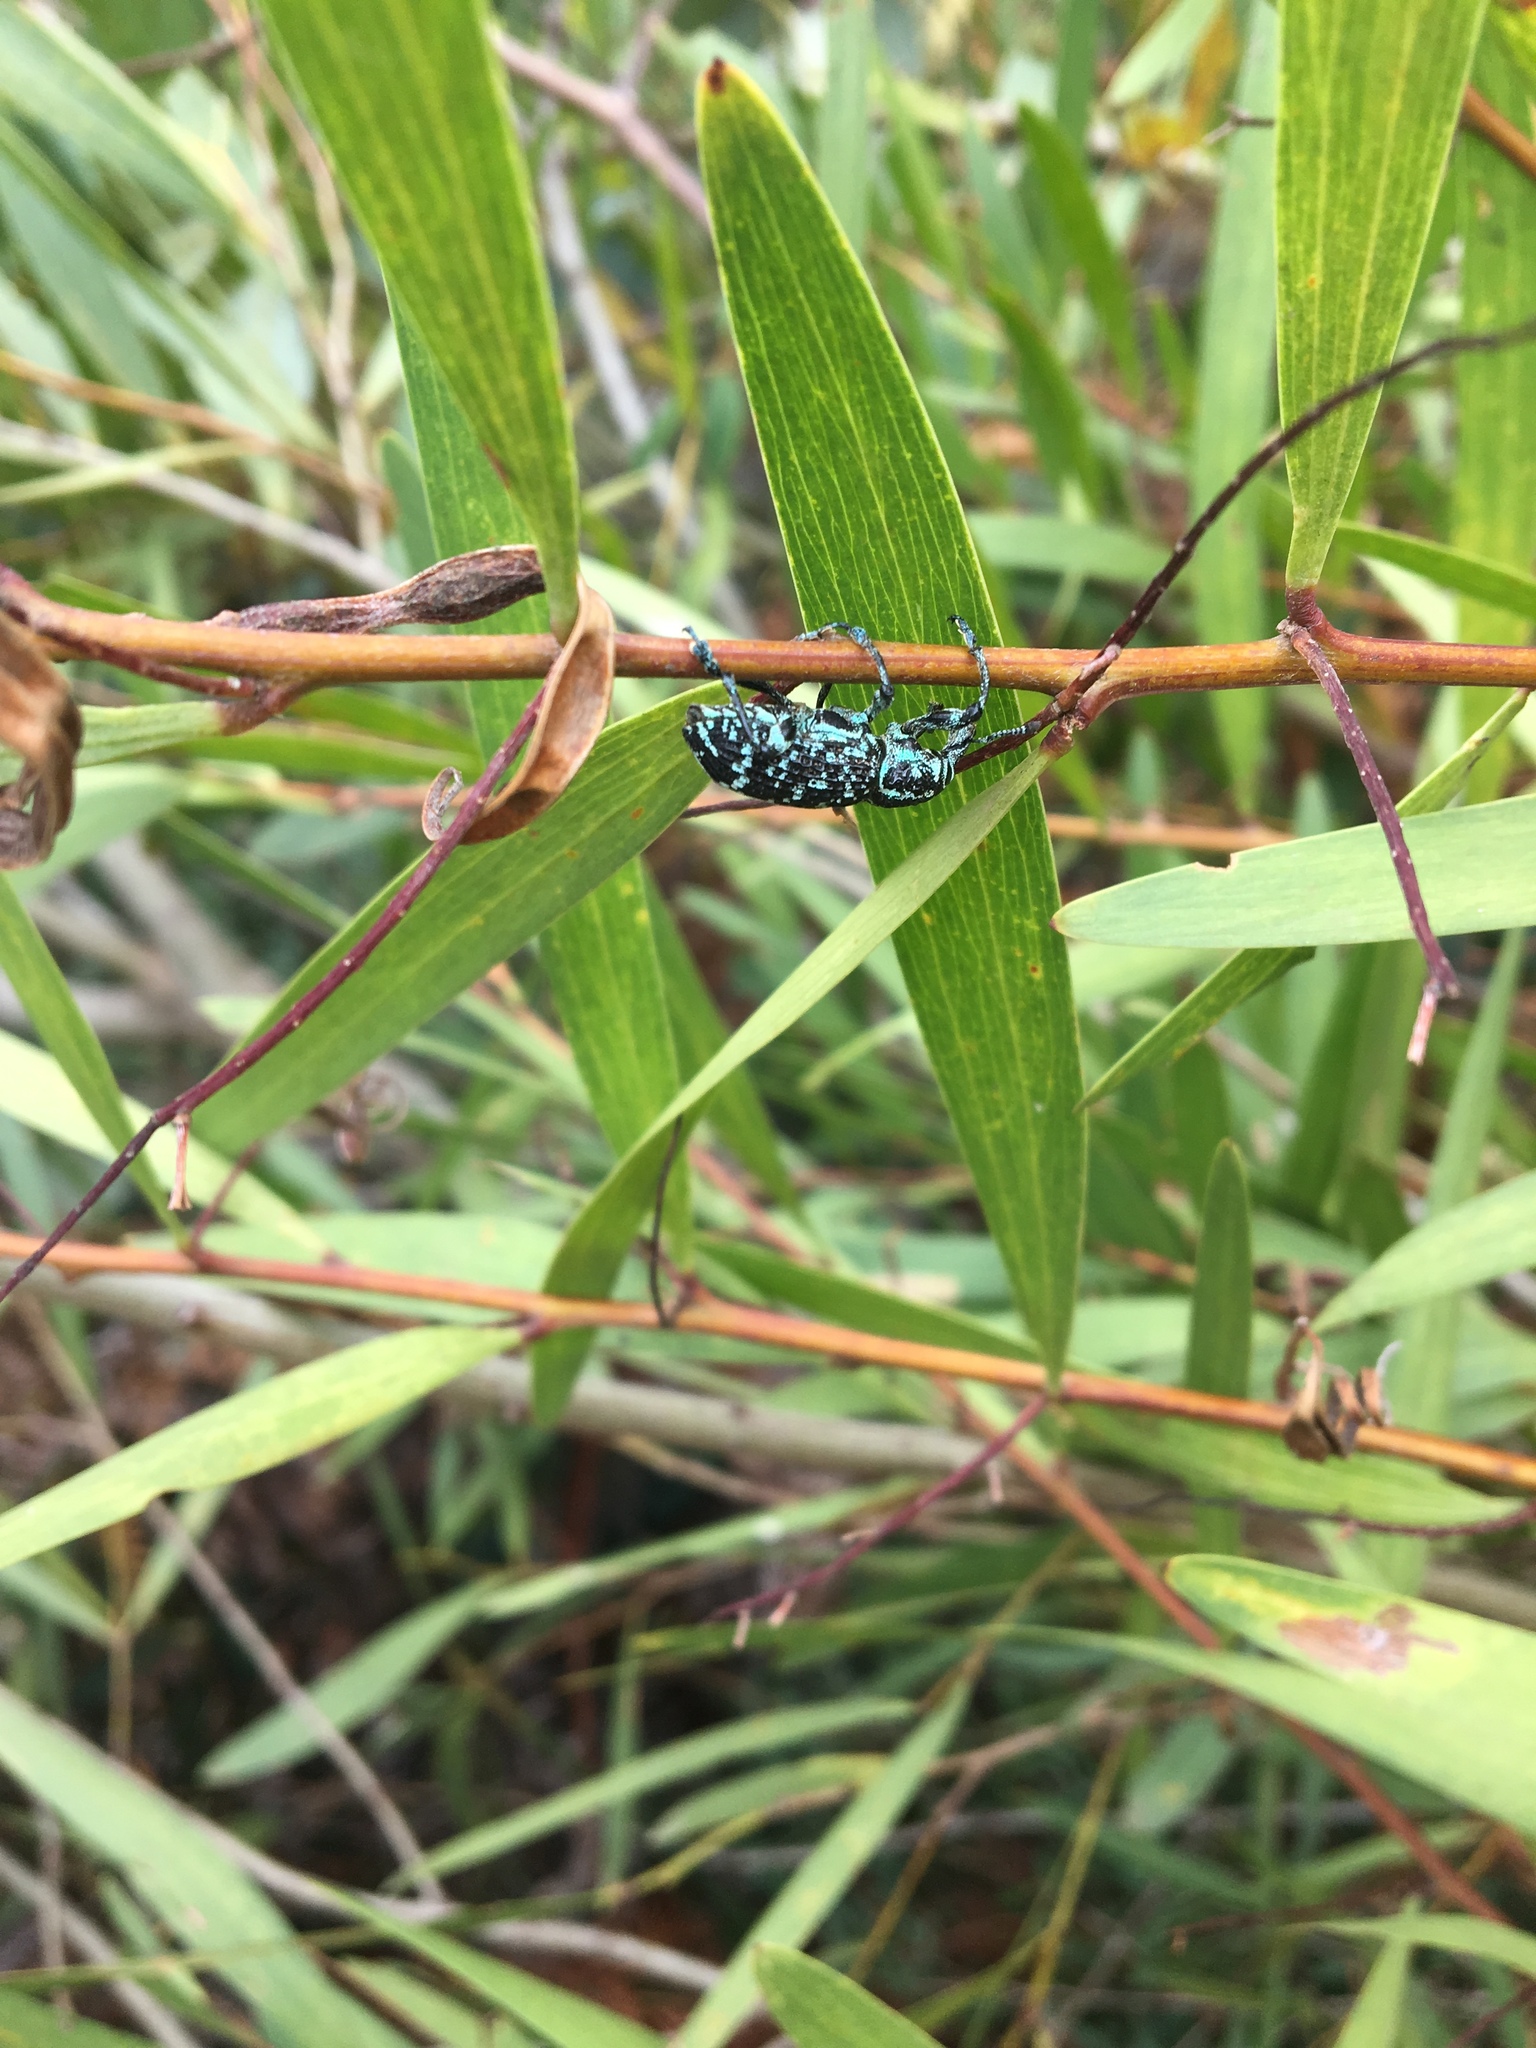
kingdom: Animalia
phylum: Arthropoda
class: Insecta
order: Coleoptera
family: Curculionidae
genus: Chrysolopus
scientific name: Chrysolopus spectabilis
